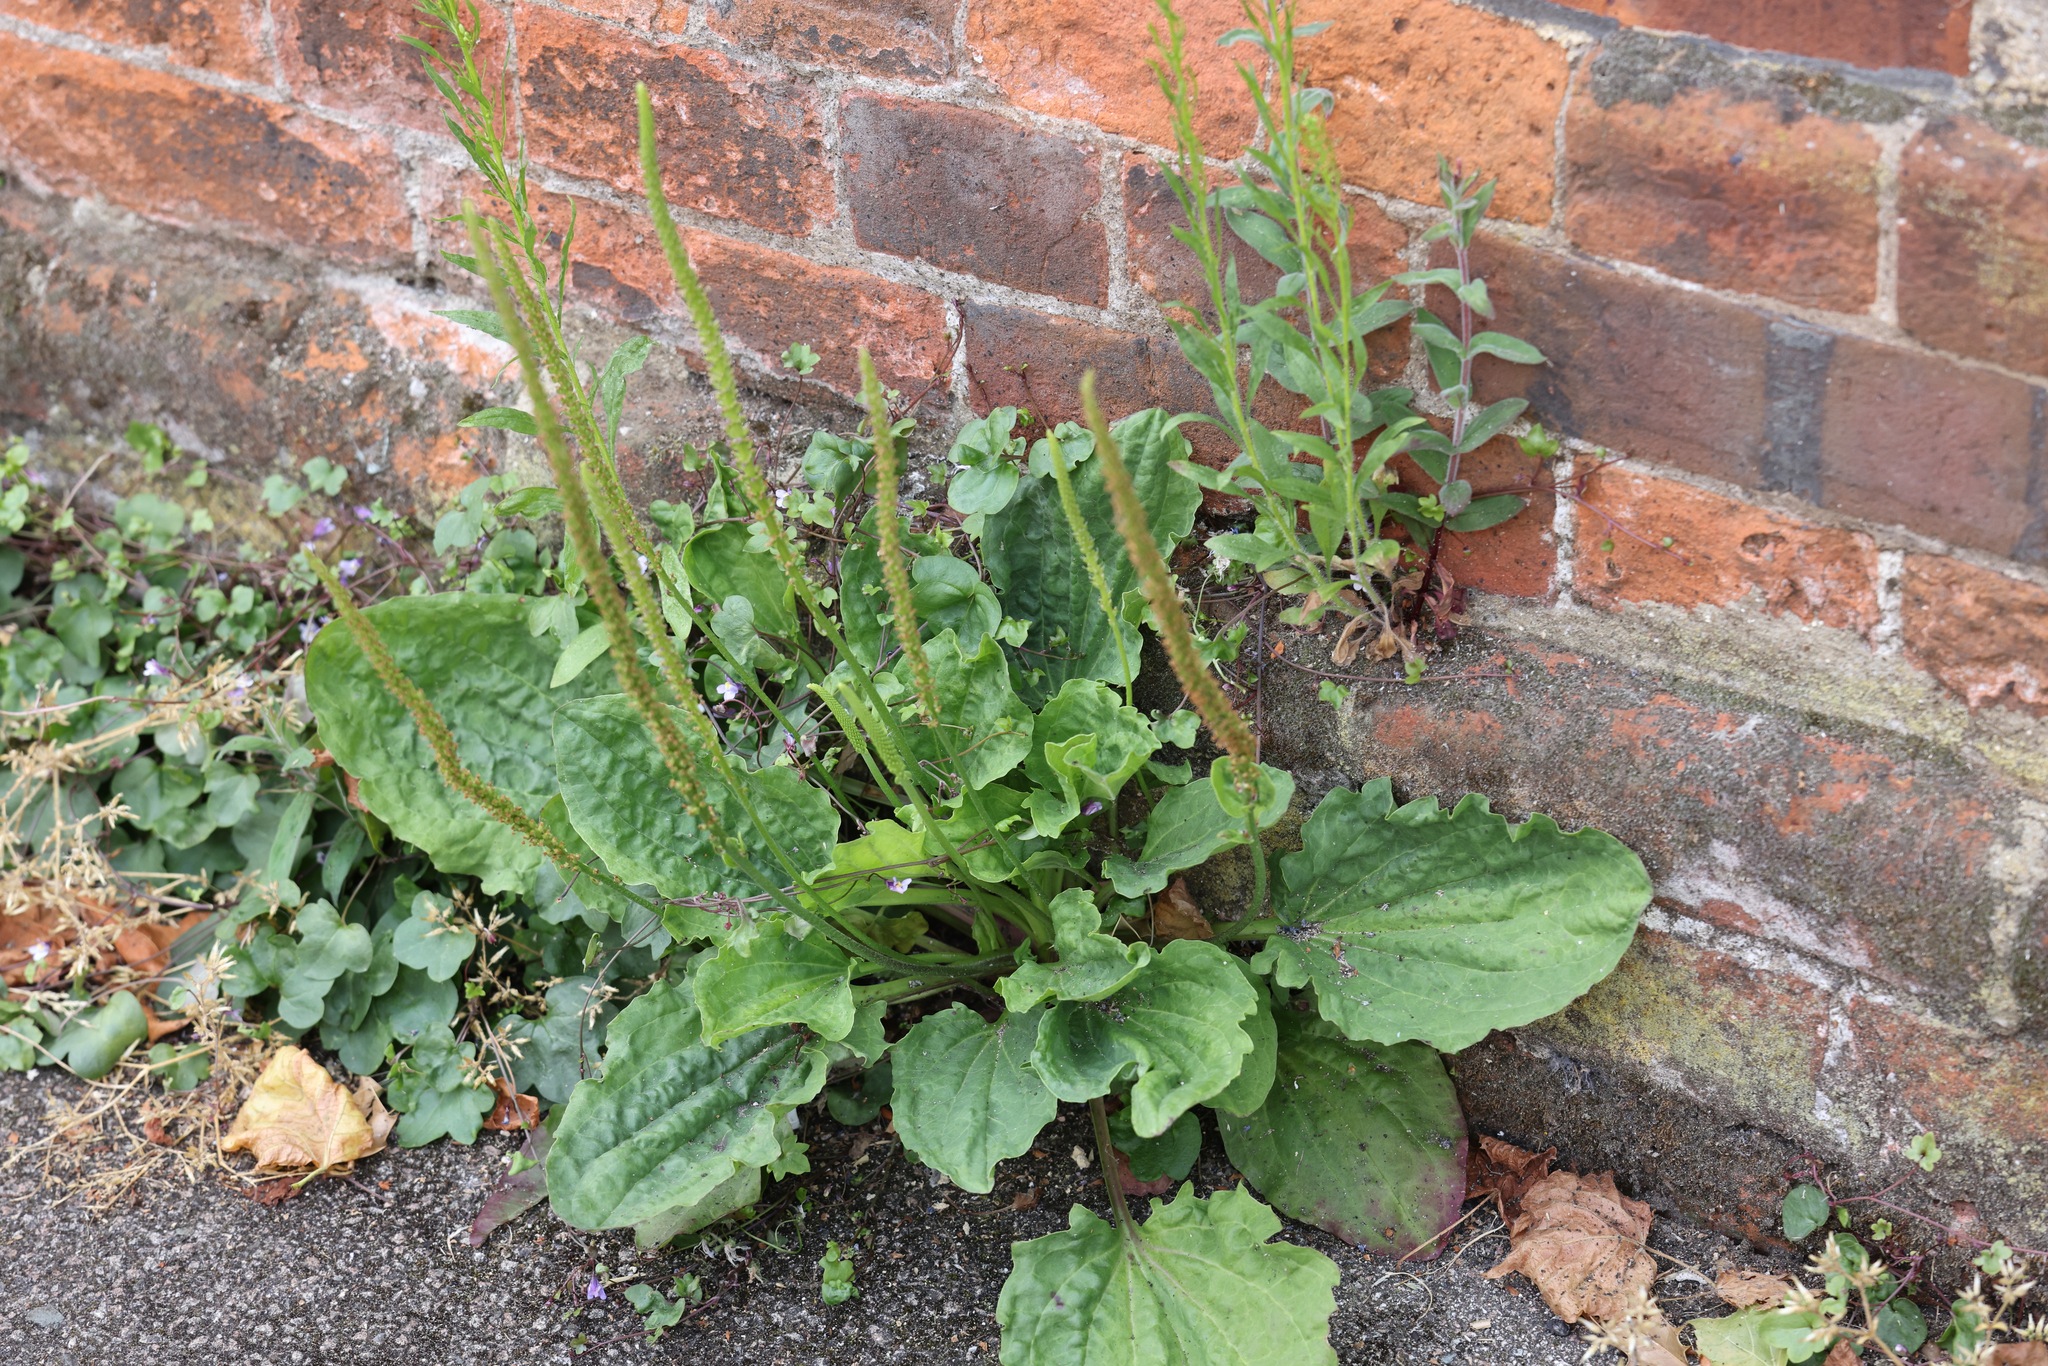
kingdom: Plantae
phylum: Tracheophyta
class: Magnoliopsida
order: Lamiales
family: Plantaginaceae
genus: Plantago
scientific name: Plantago major
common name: Common plantain
